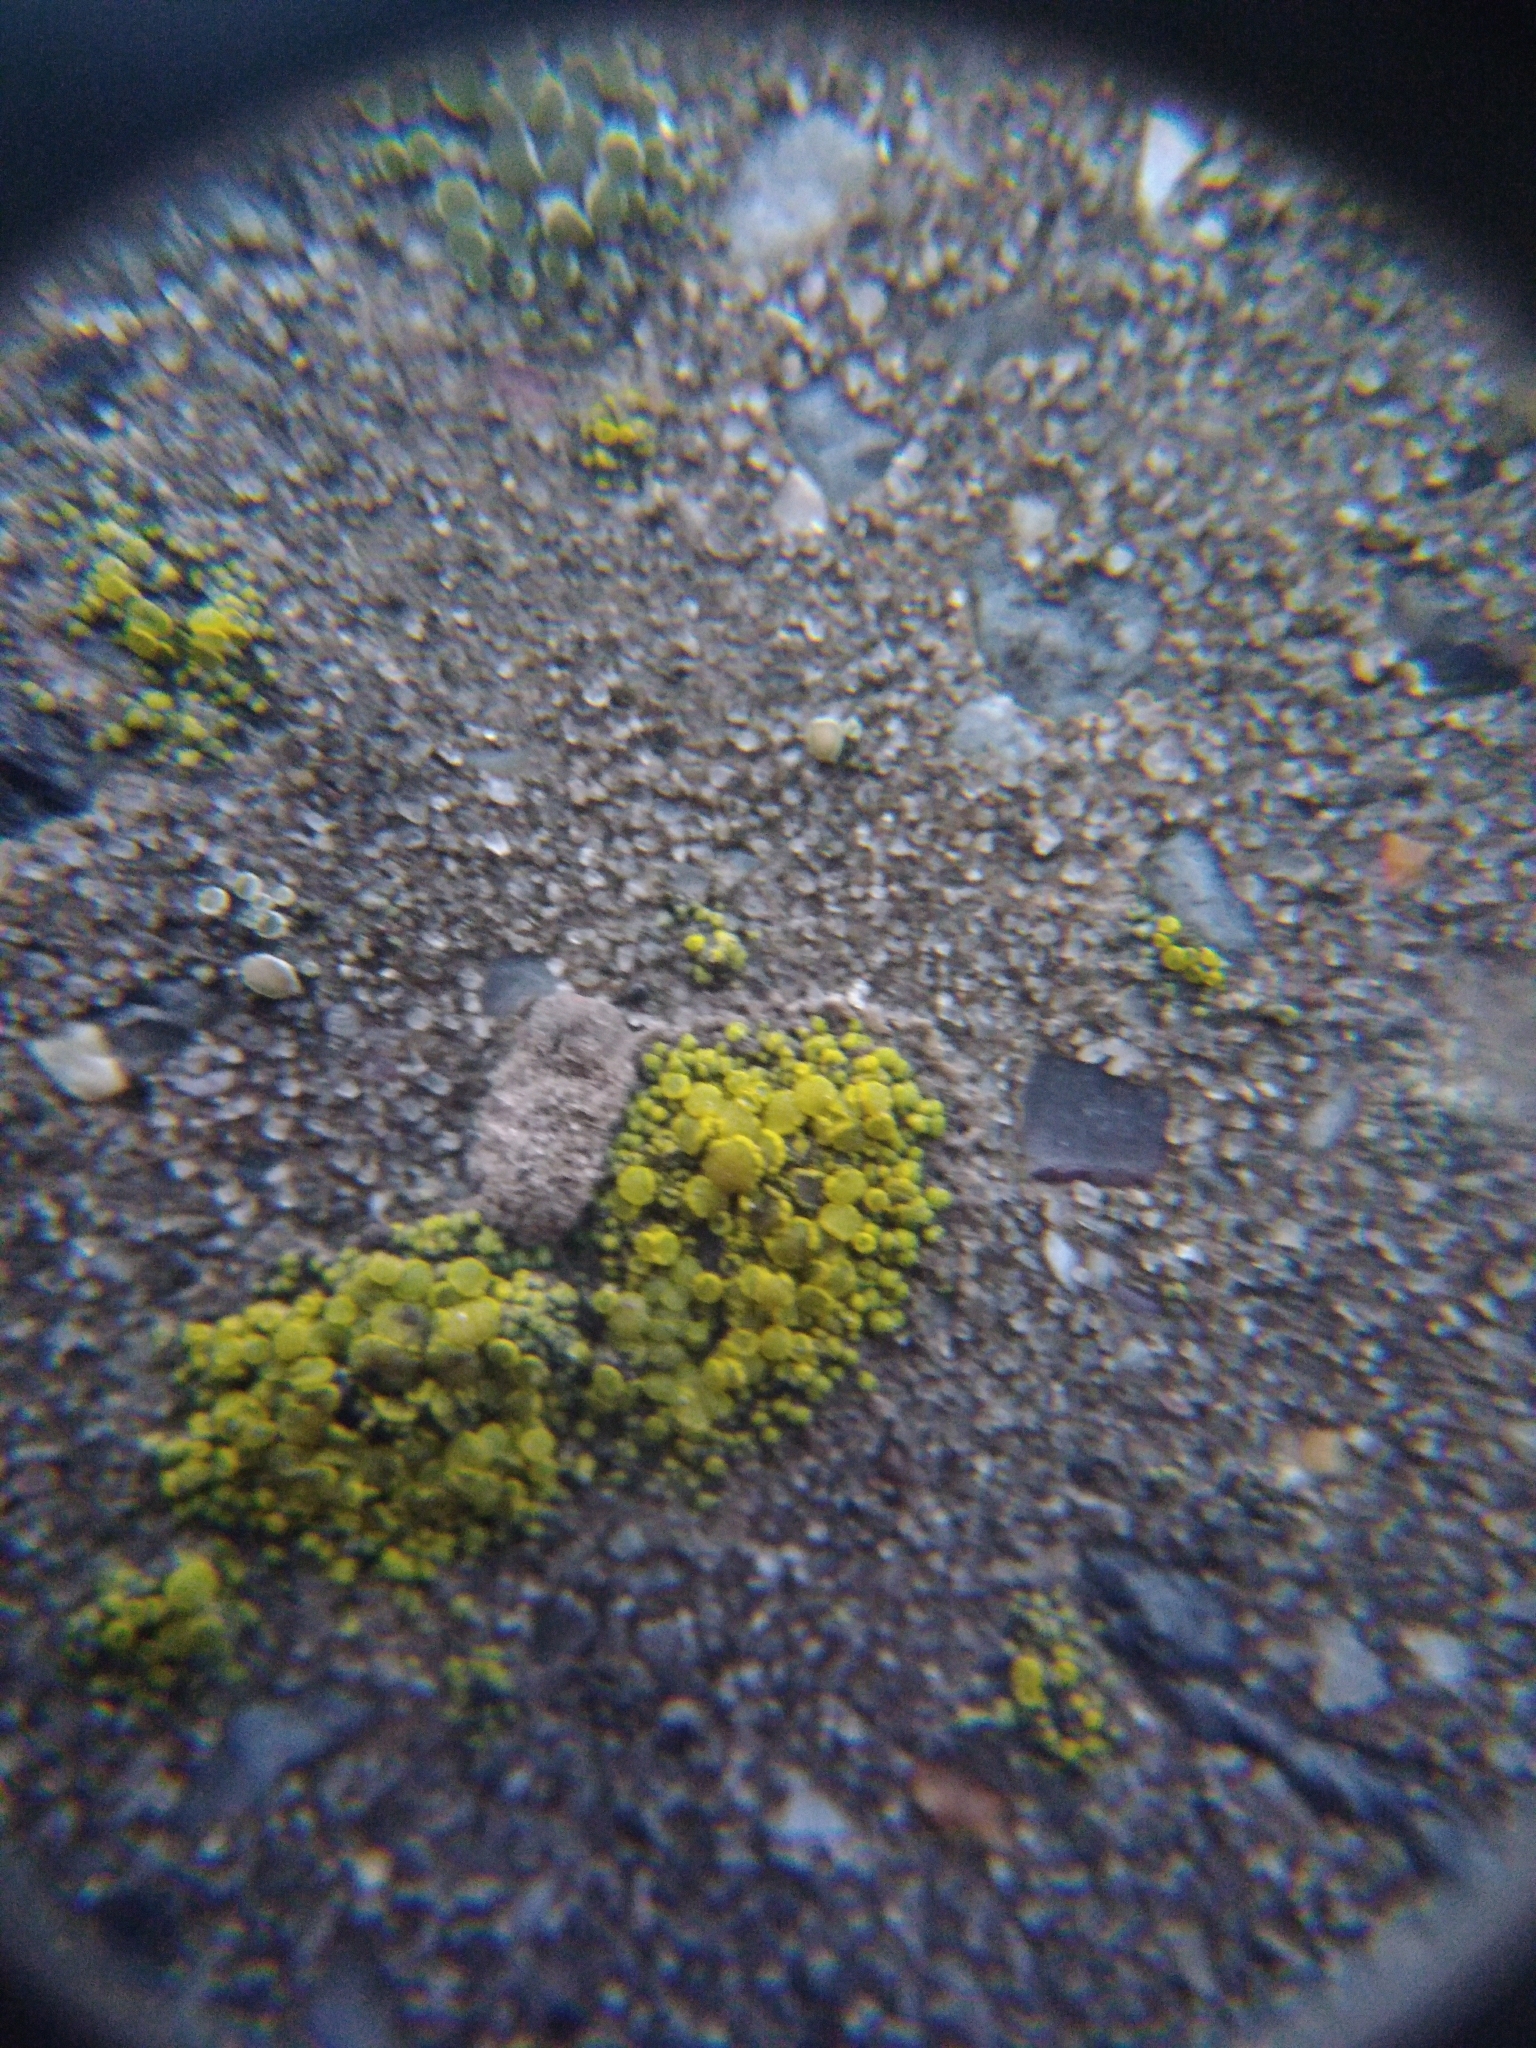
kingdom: Fungi
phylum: Ascomycota
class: Candelariomycetes
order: Candelariales
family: Candelariaceae
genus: Candelariella
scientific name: Candelariella aurella
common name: Hidden goldspeck lichen
